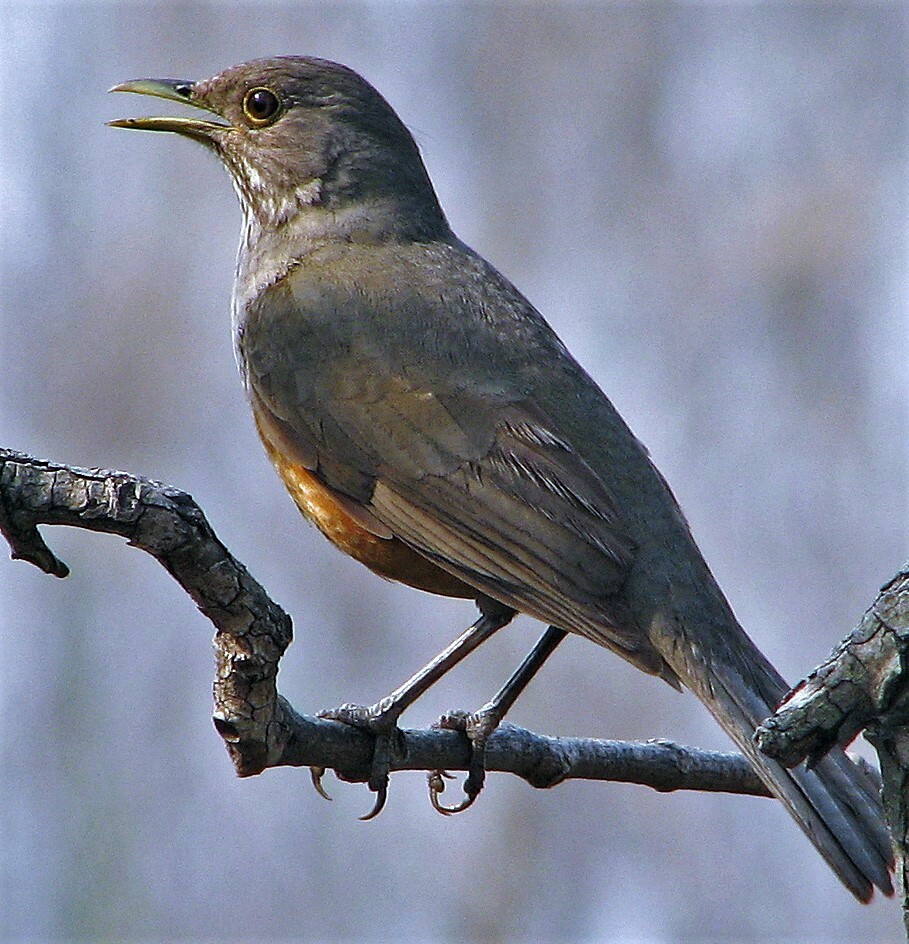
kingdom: Animalia
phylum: Chordata
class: Aves
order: Passeriformes
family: Turdidae
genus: Turdus
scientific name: Turdus rufiventris
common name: Rufous-bellied thrush
